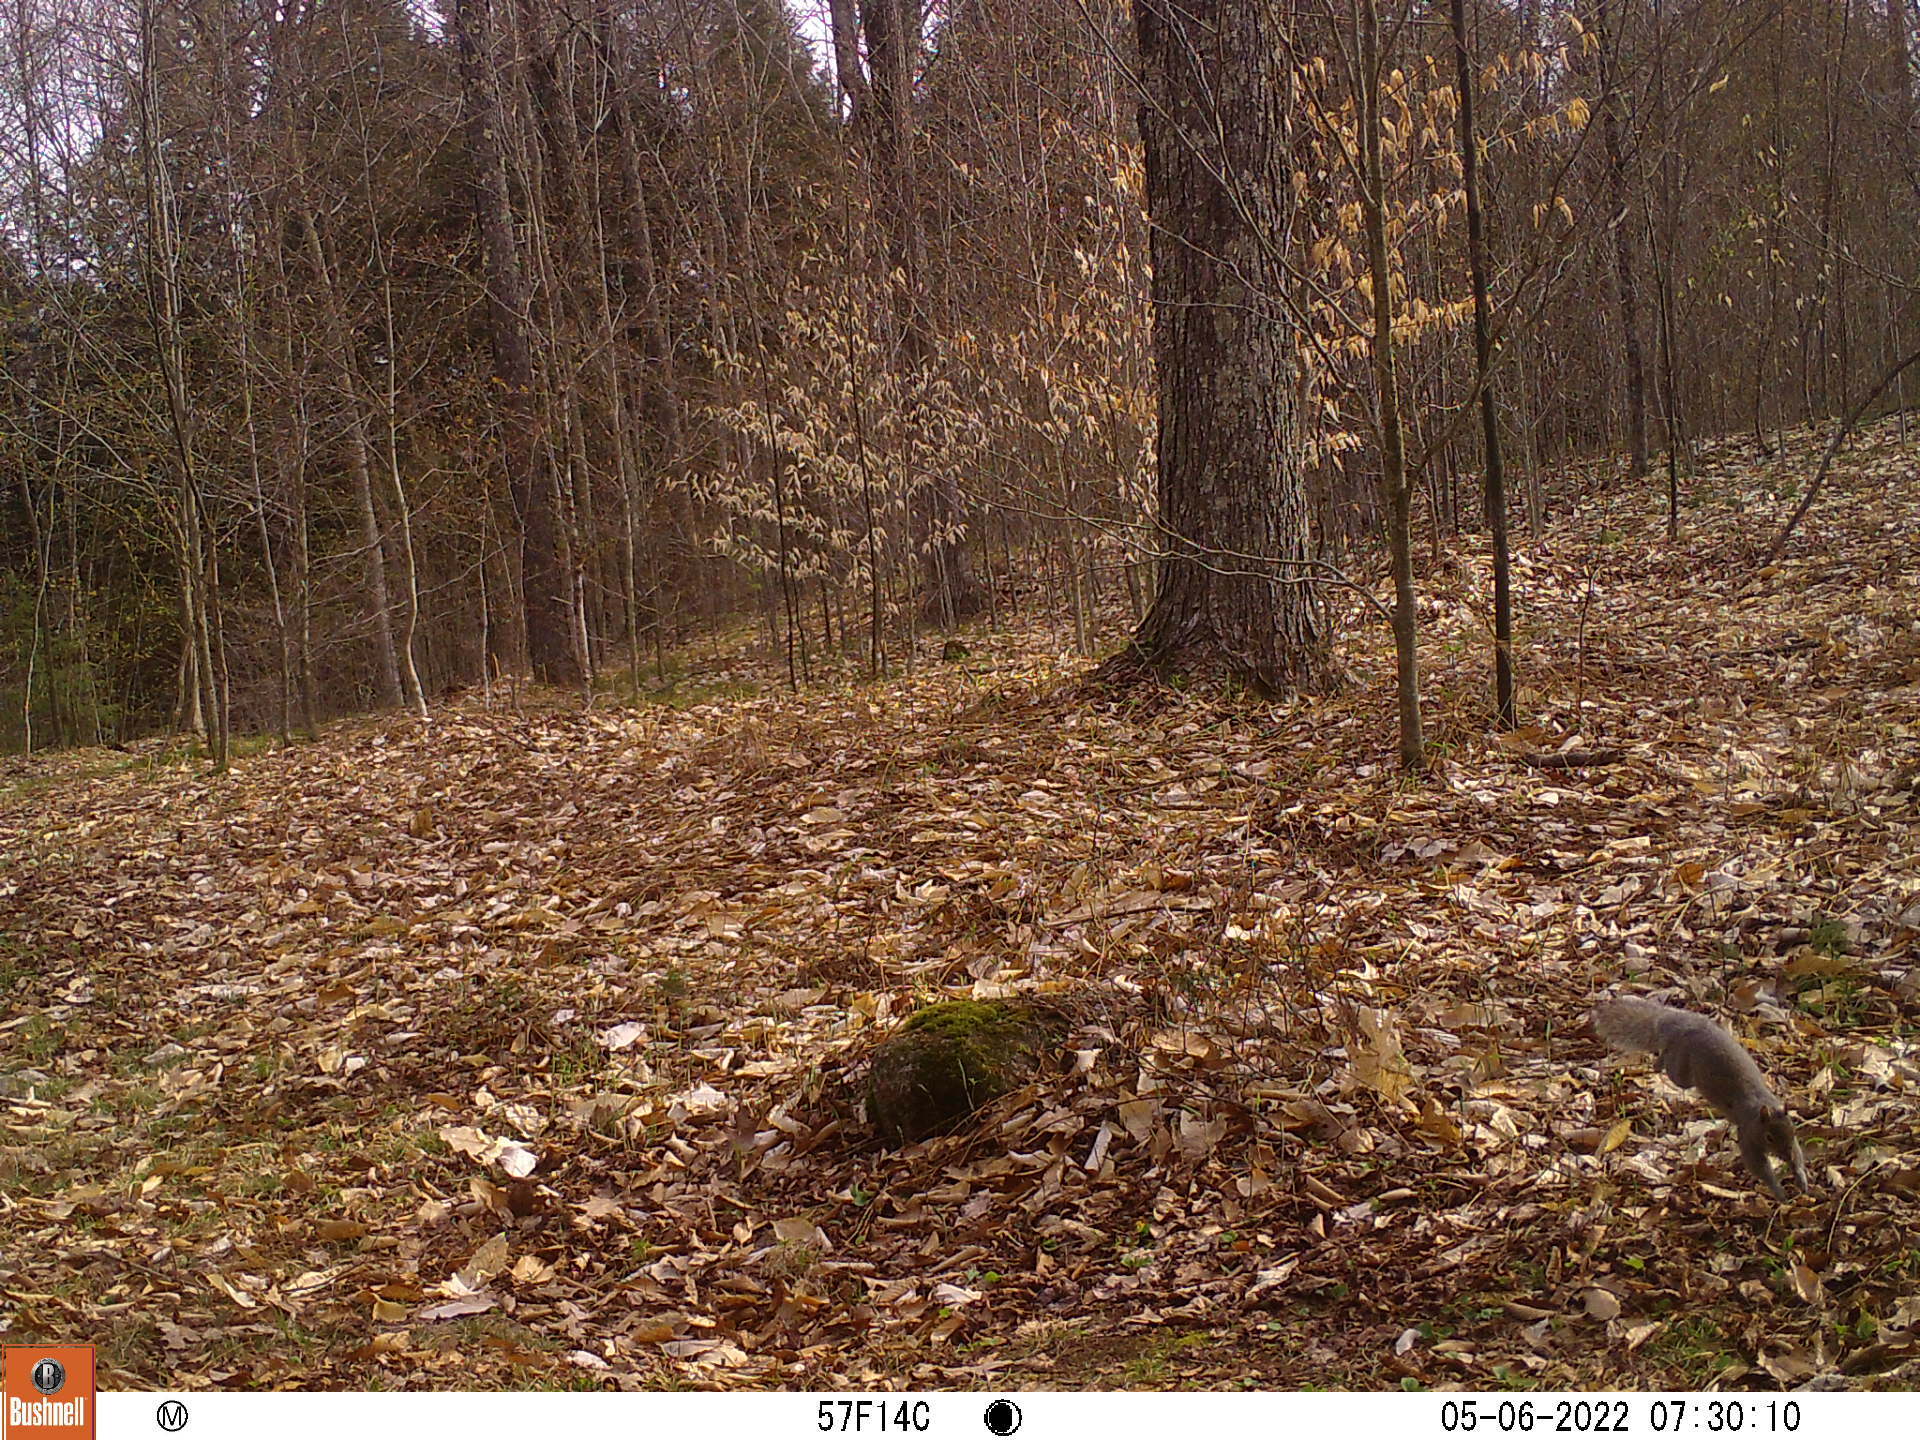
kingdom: Animalia
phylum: Chordata
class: Mammalia
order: Rodentia
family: Sciuridae
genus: Sciurus
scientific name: Sciurus carolinensis
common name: Eastern gray squirrel
